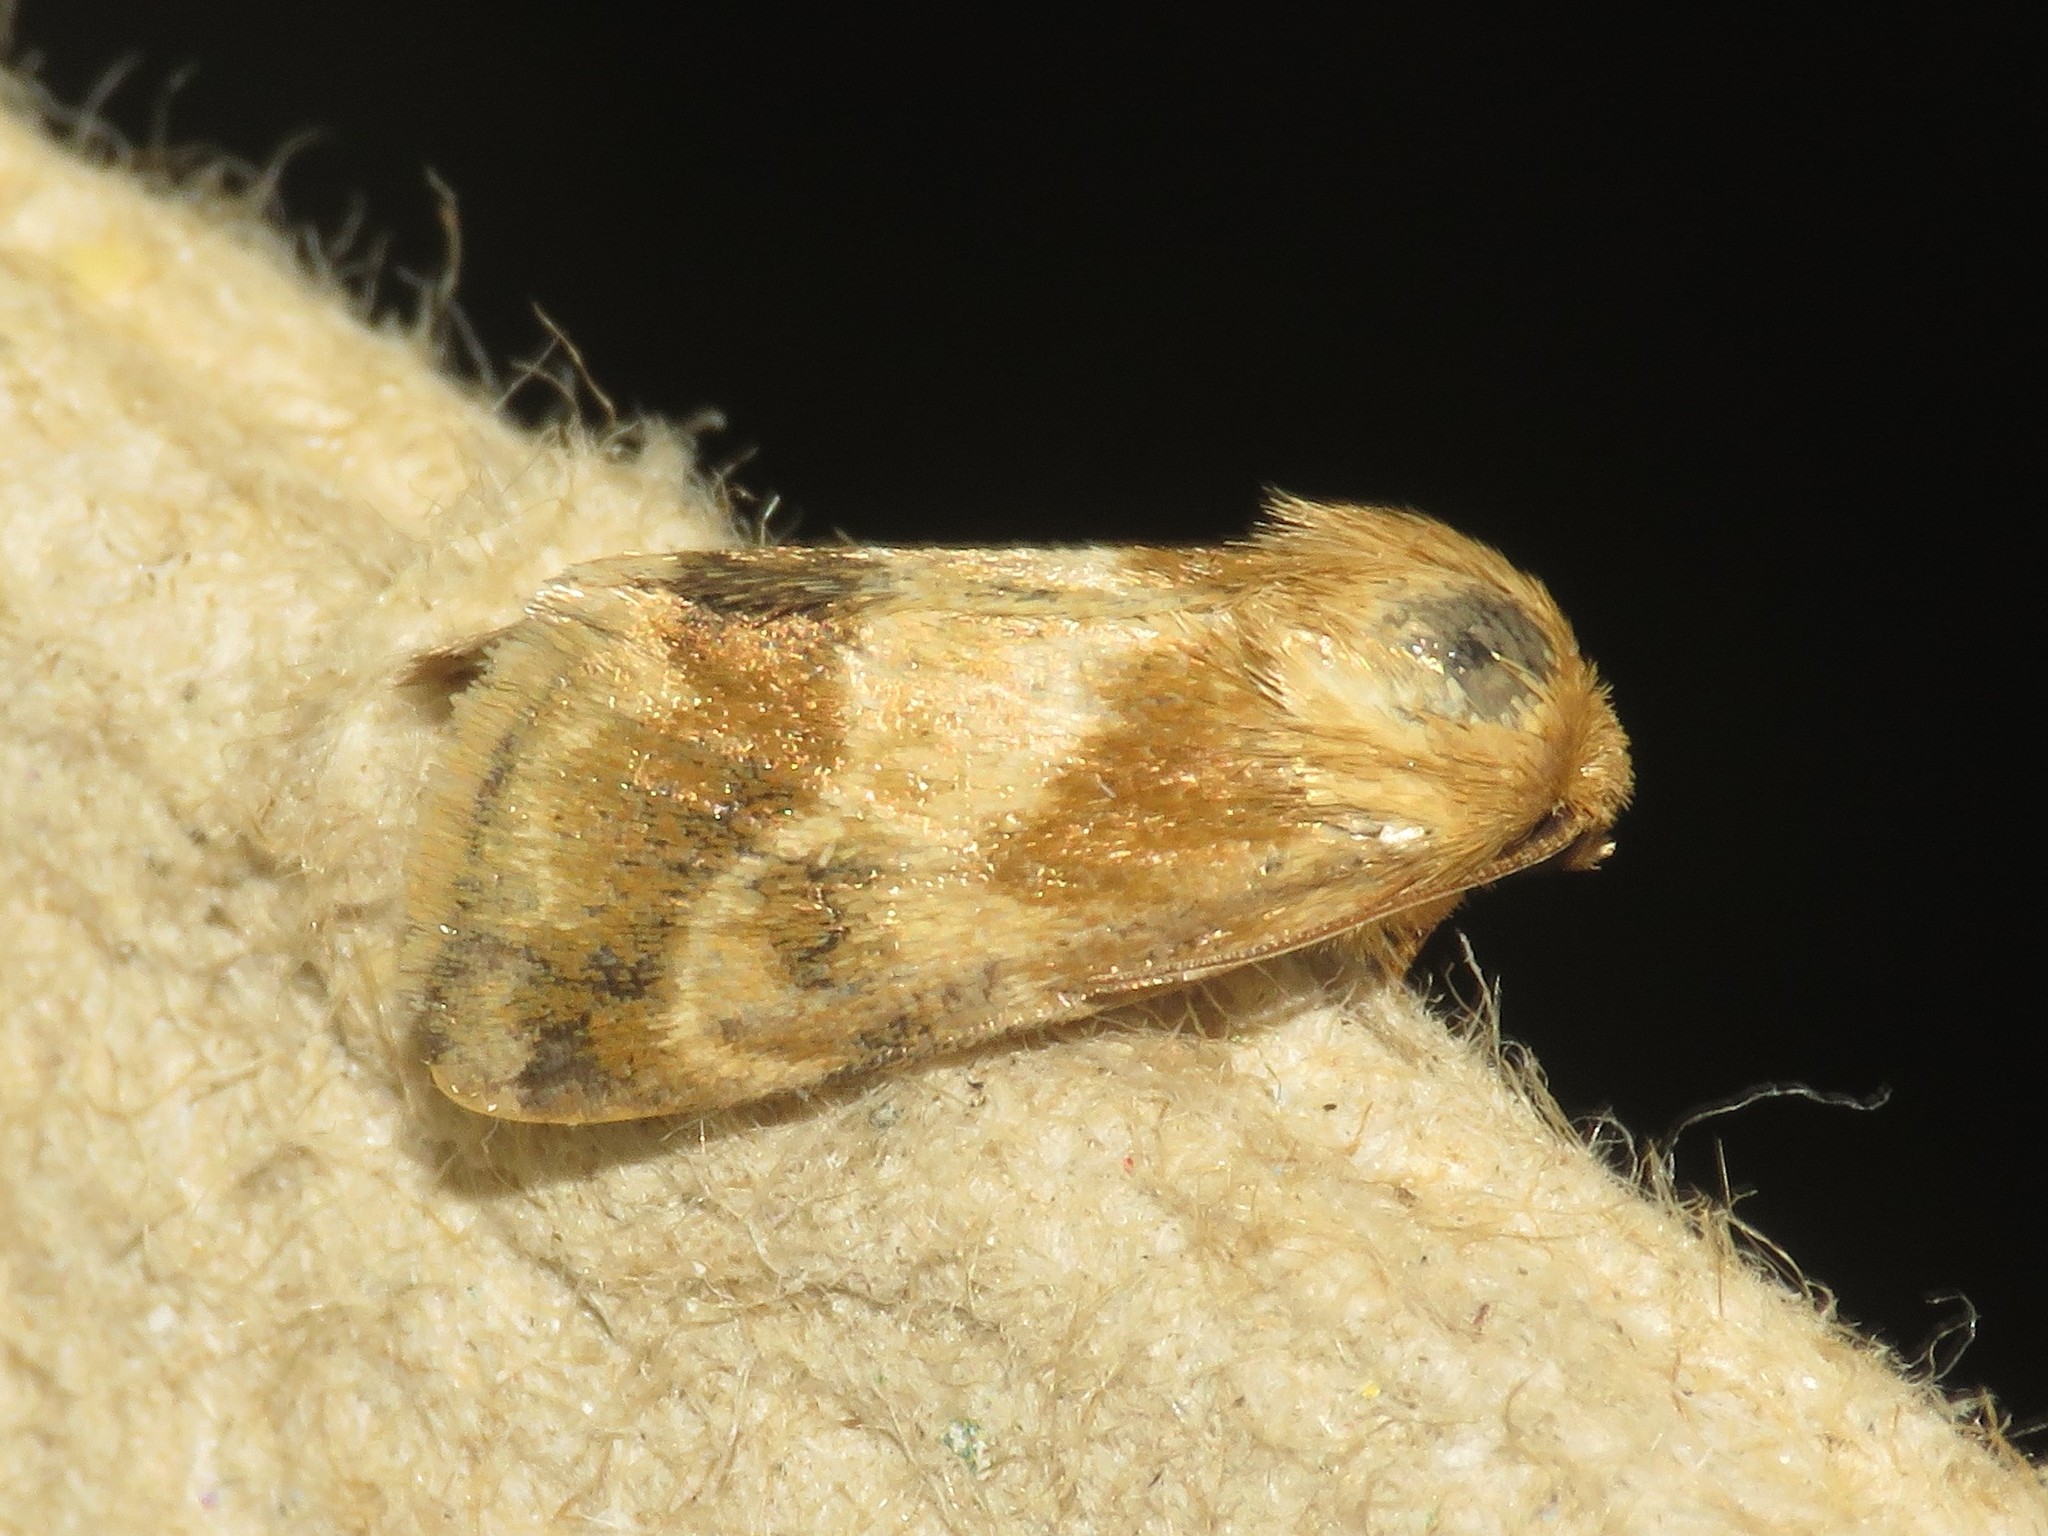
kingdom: Animalia
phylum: Arthropoda
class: Insecta
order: Lepidoptera
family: Noctuidae
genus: Schinia
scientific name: Schinia lynx
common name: Lynx flower moth
